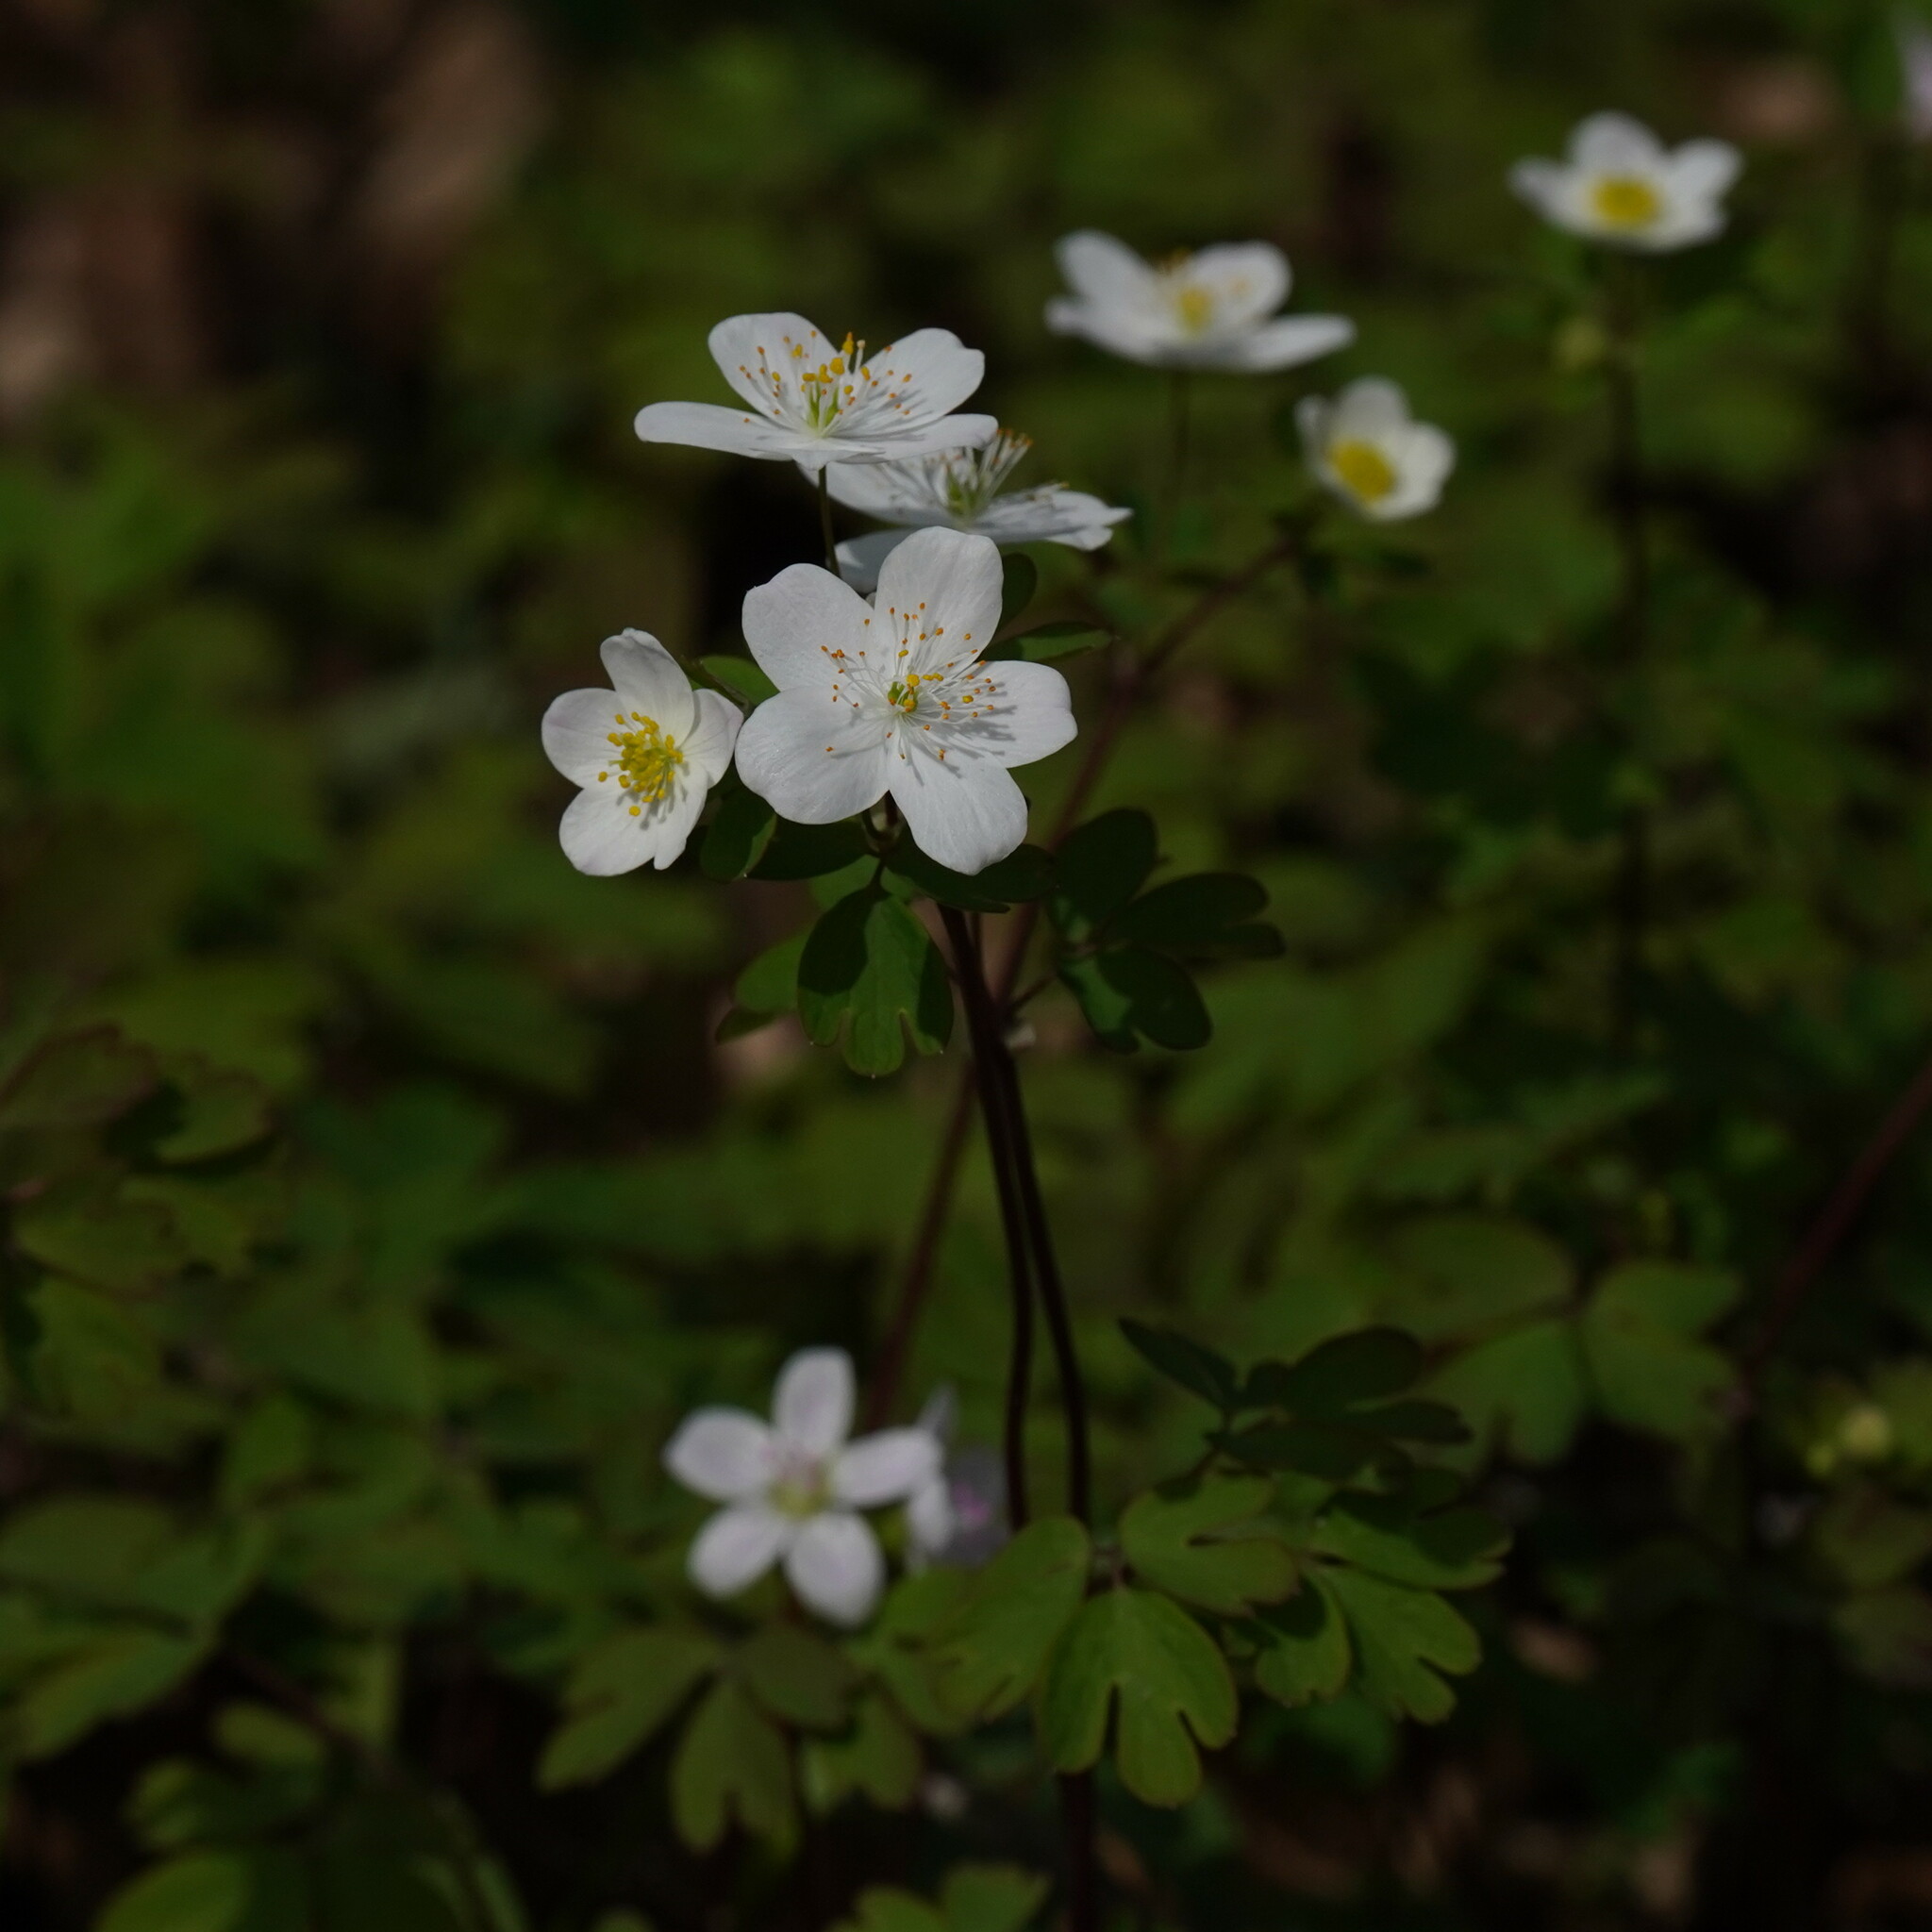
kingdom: Plantae
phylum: Tracheophyta
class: Magnoliopsida
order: Ranunculales
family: Ranunculaceae
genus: Enemion
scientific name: Enemion biternatum
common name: Eastern false rue-anemone
